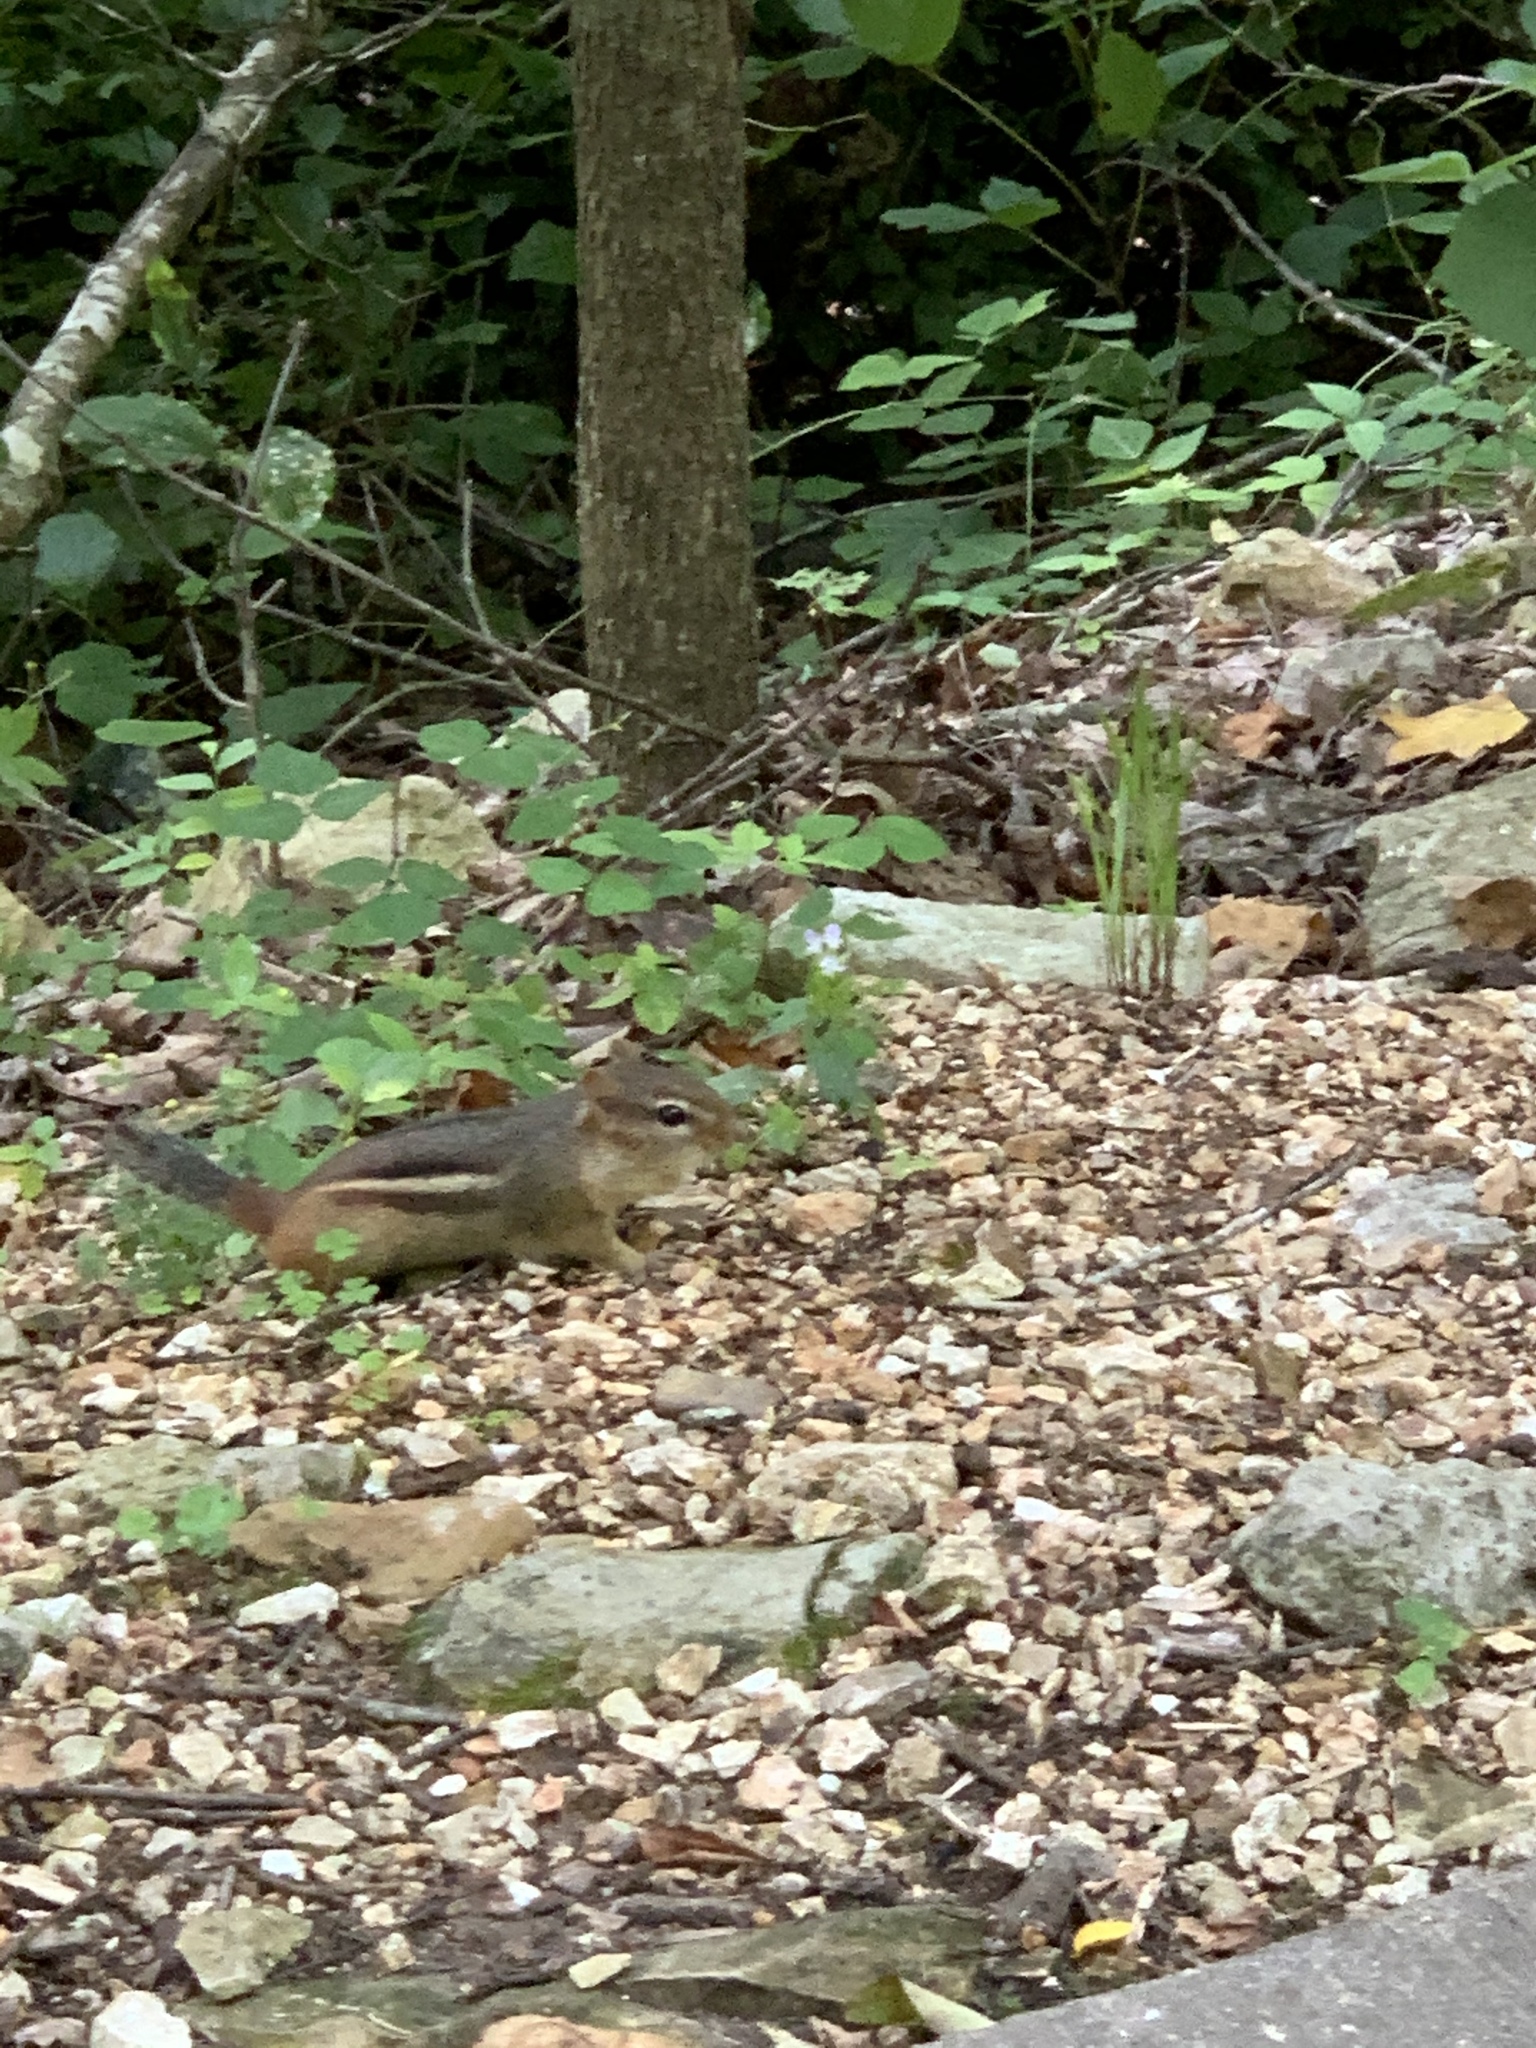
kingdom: Animalia
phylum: Chordata
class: Mammalia
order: Rodentia
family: Sciuridae
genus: Tamias
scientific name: Tamias striatus
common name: Eastern chipmunk
